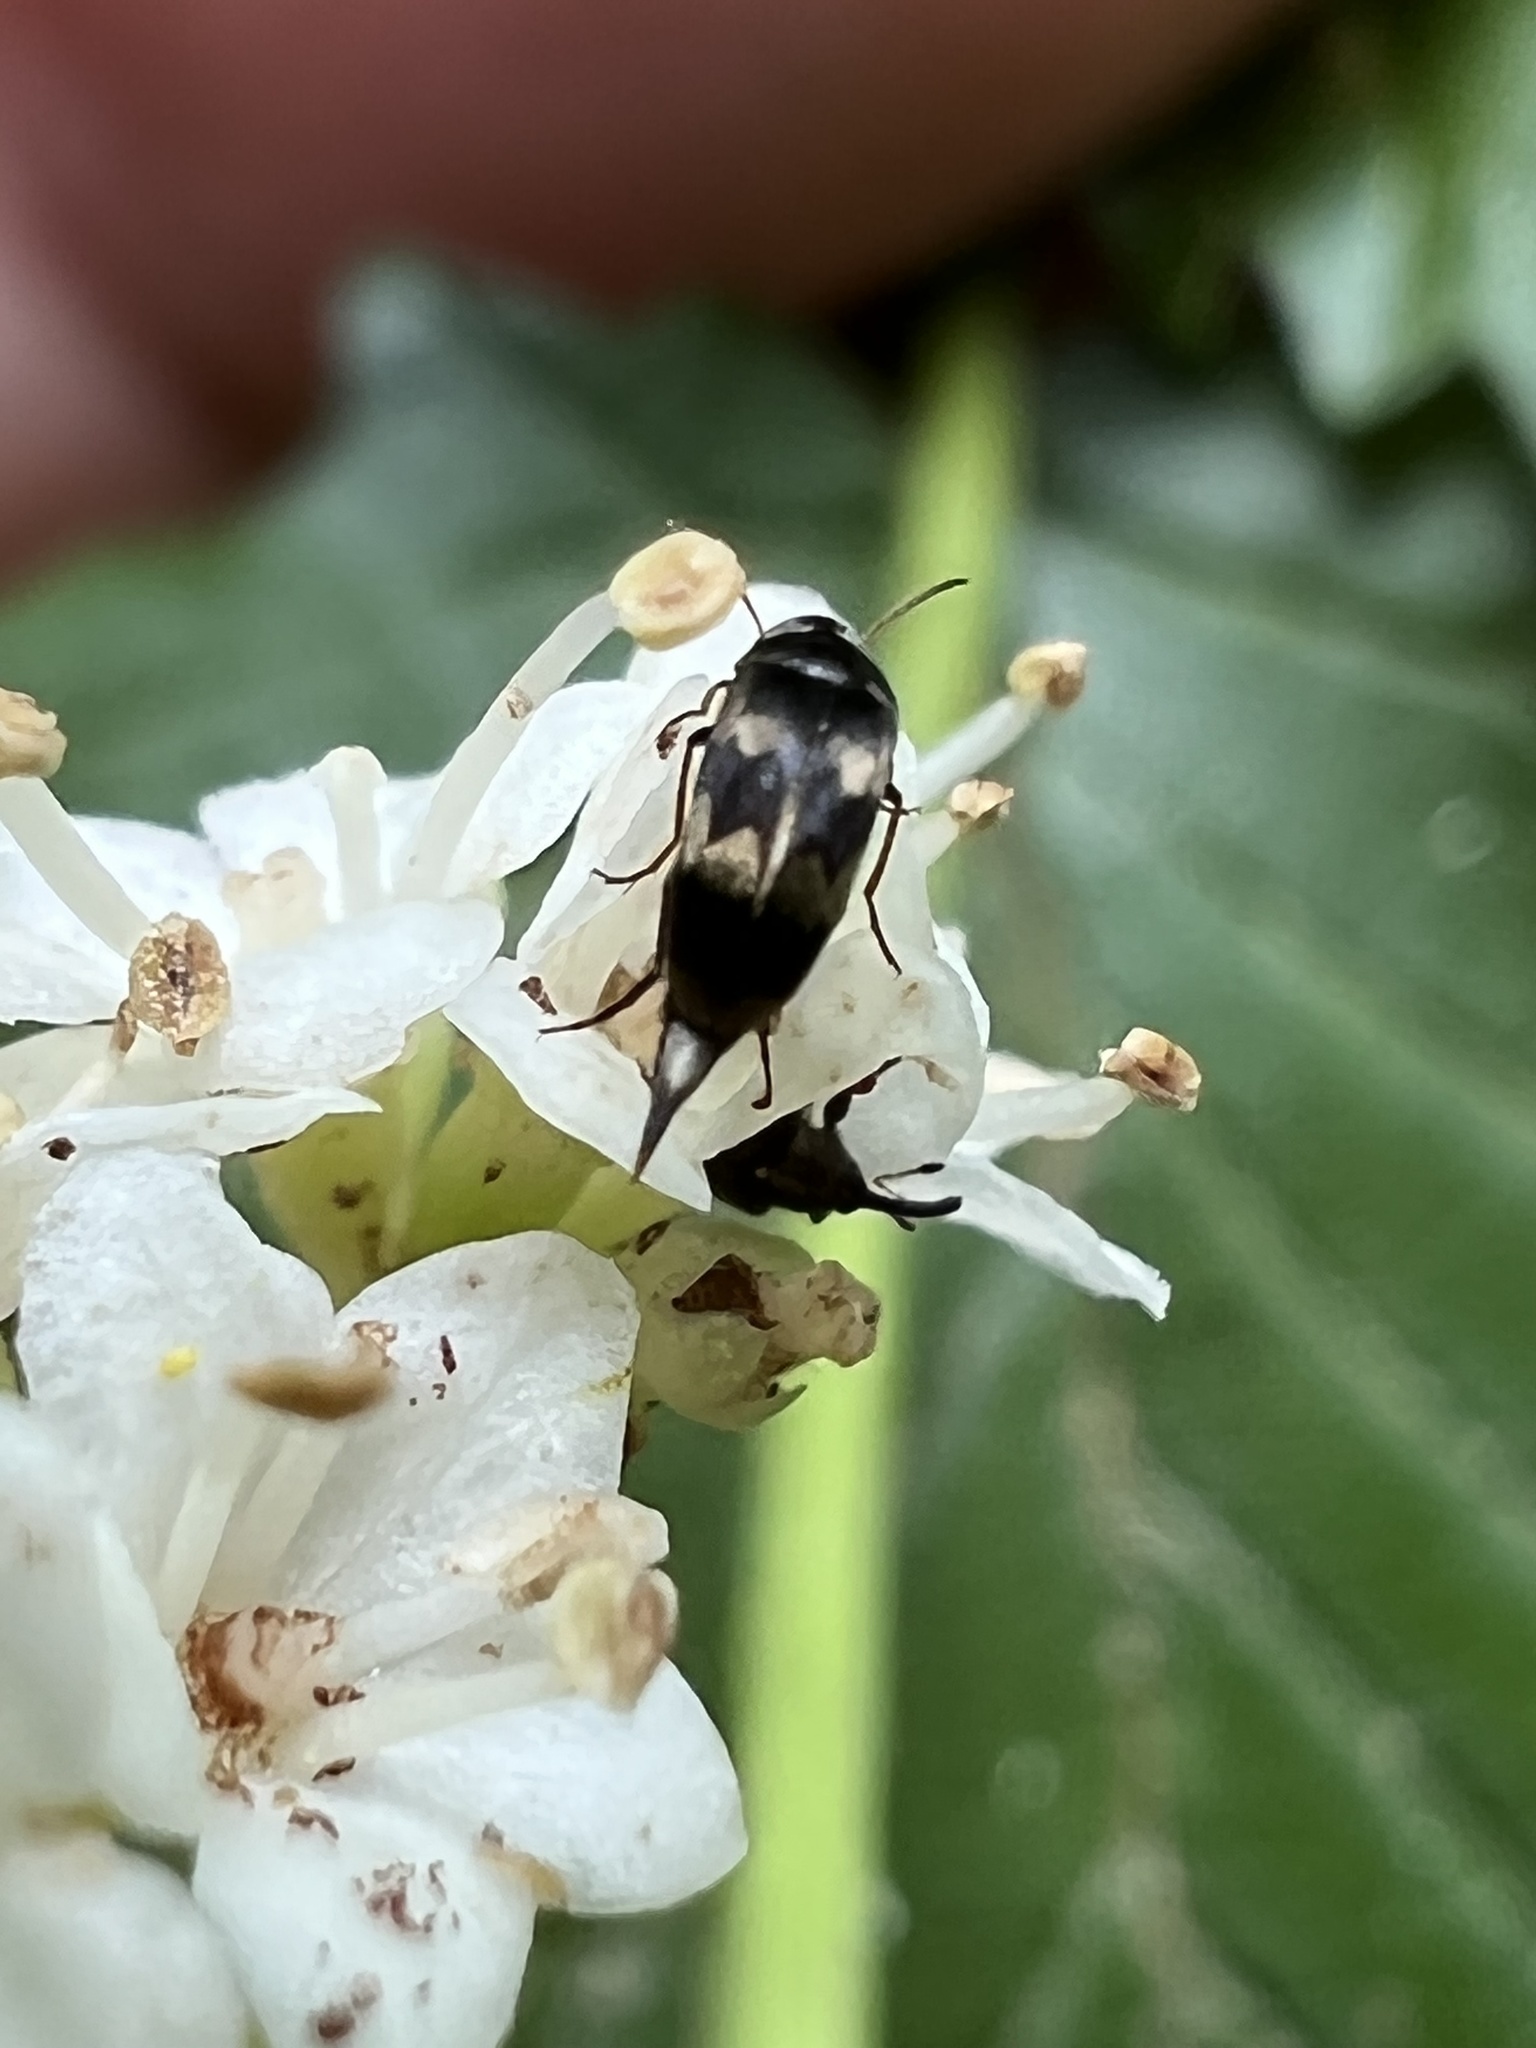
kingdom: Animalia
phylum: Arthropoda
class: Insecta
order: Coleoptera
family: Mordellidae
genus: Falsomordellistena
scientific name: Falsomordellistena pubescens
